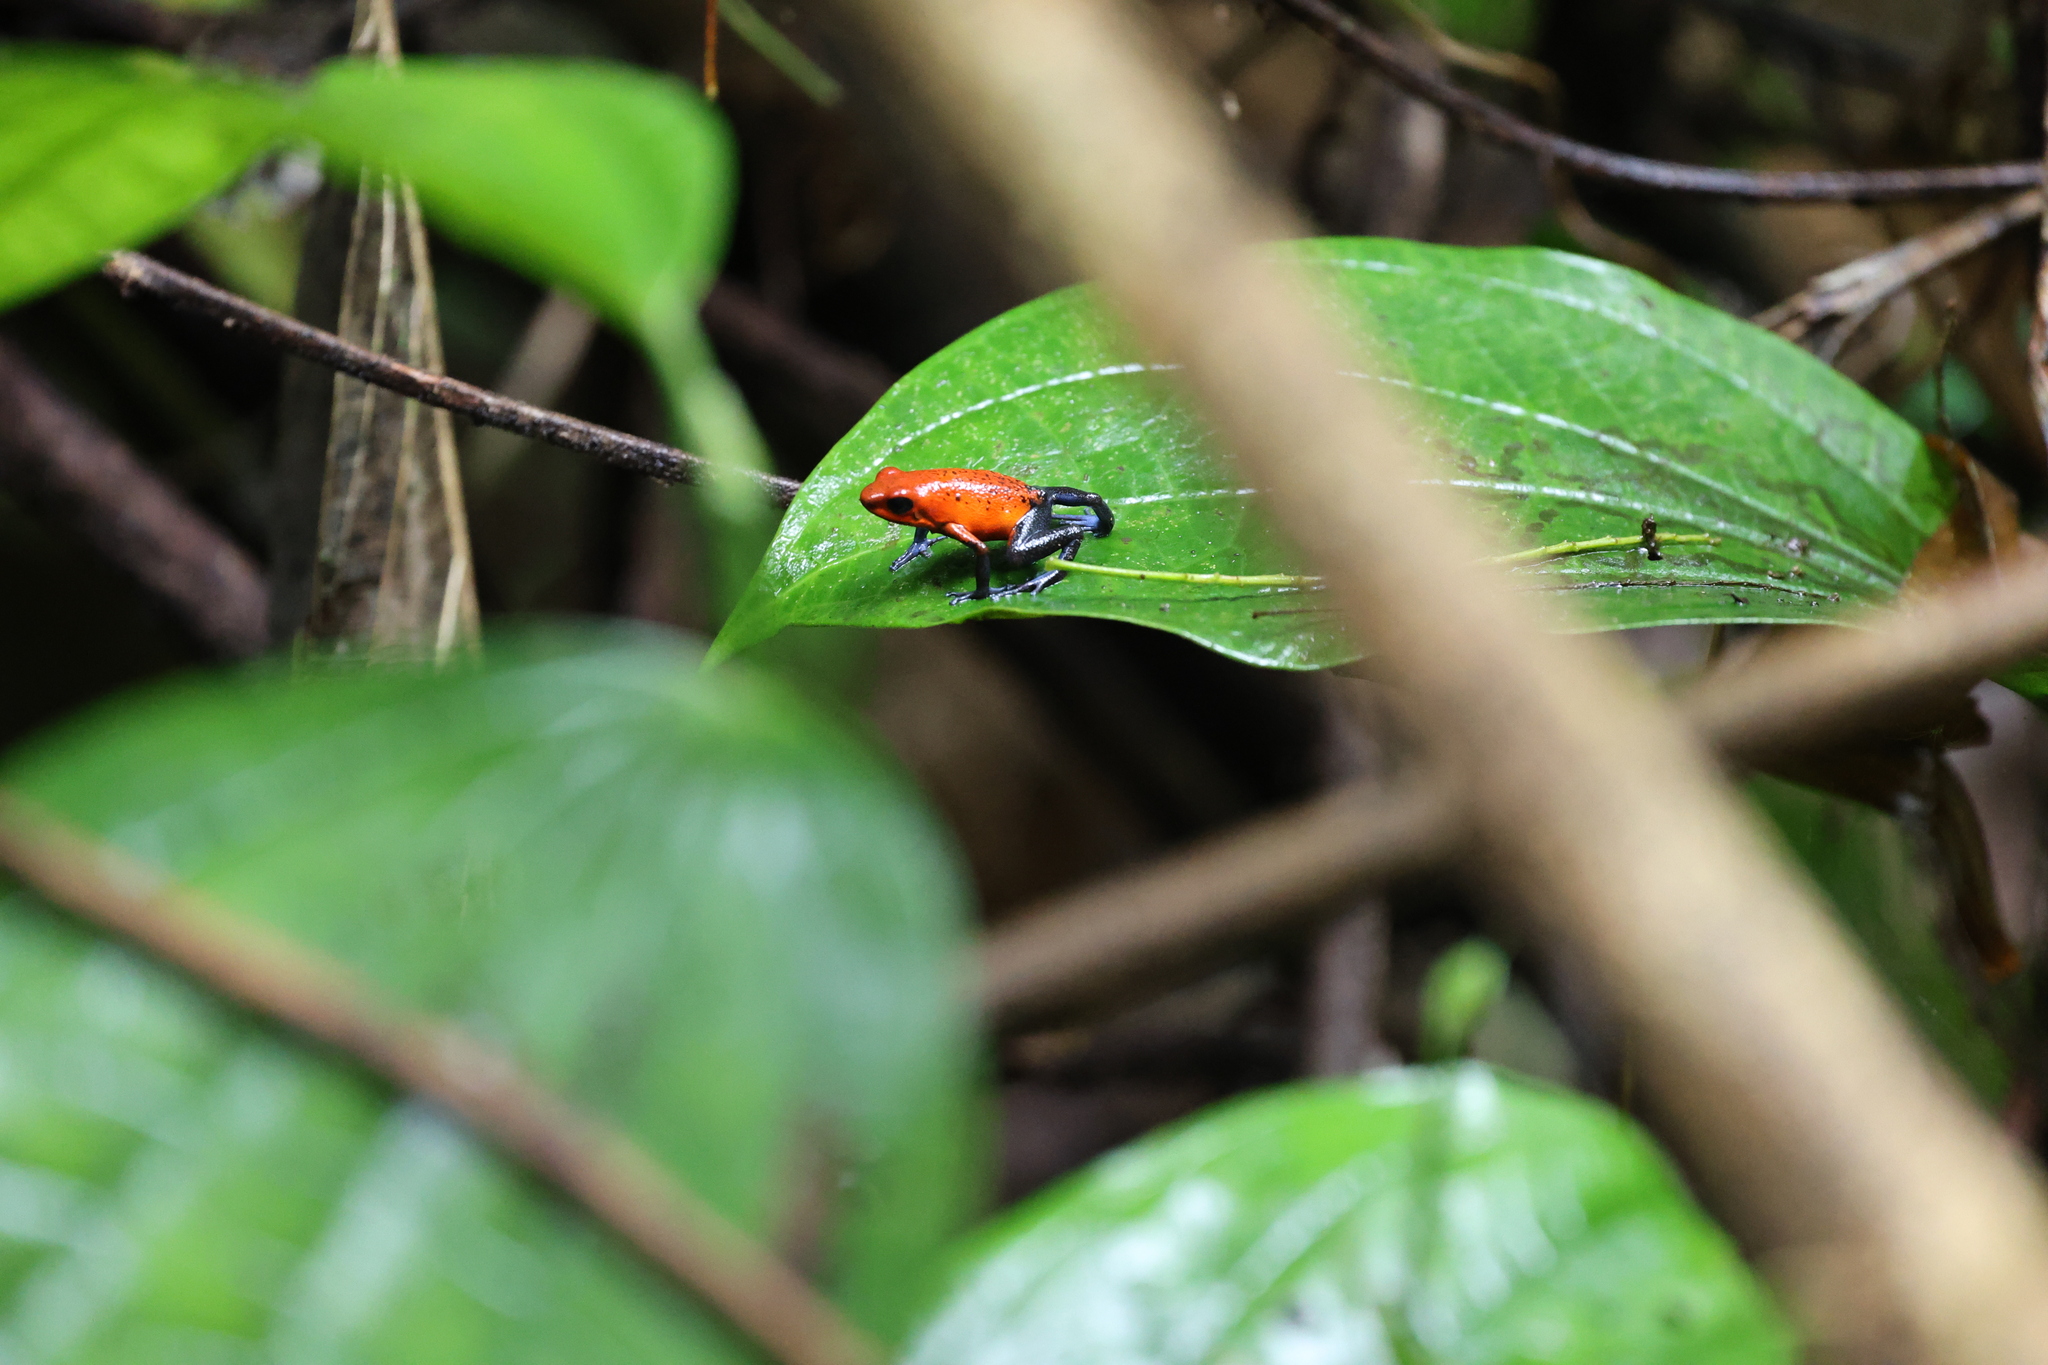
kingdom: Animalia
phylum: Chordata
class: Amphibia
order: Anura
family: Dendrobatidae
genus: Oophaga
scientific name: Oophaga pumilio
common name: Flaming poison frog
